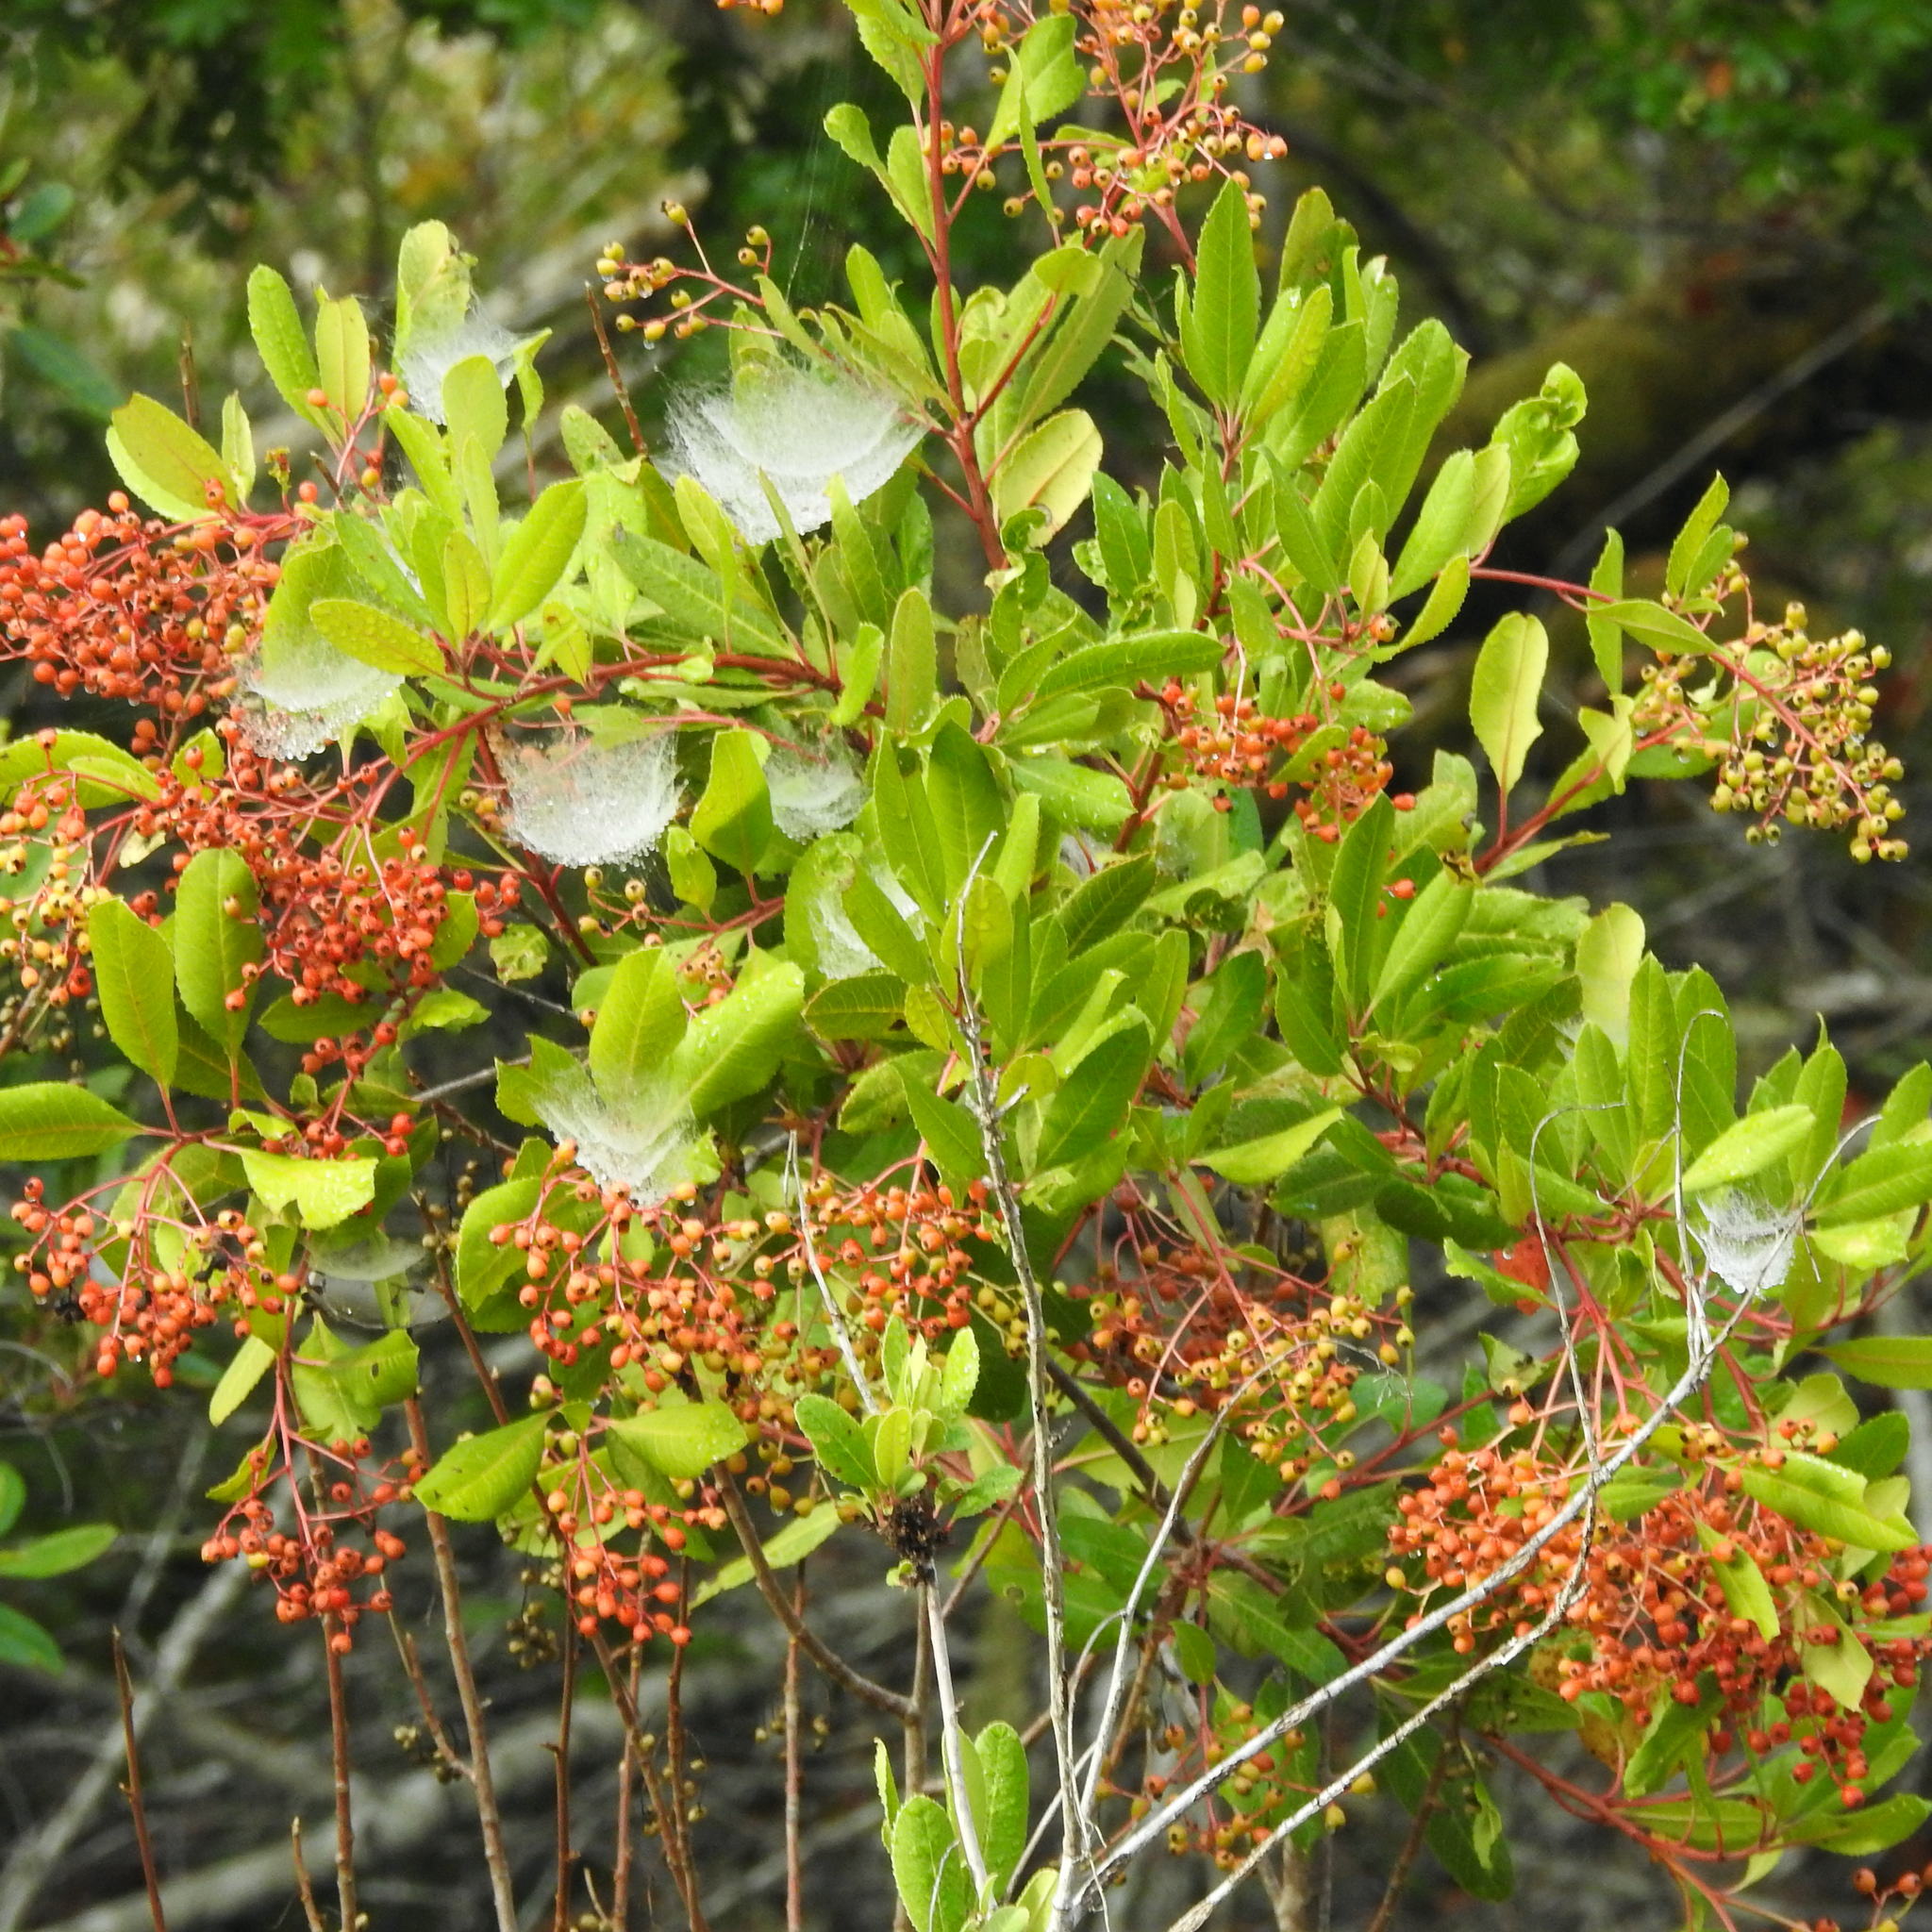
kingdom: Plantae
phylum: Tracheophyta
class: Magnoliopsida
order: Rosales
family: Rosaceae
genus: Heteromeles
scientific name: Heteromeles arbutifolia
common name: California-holly
